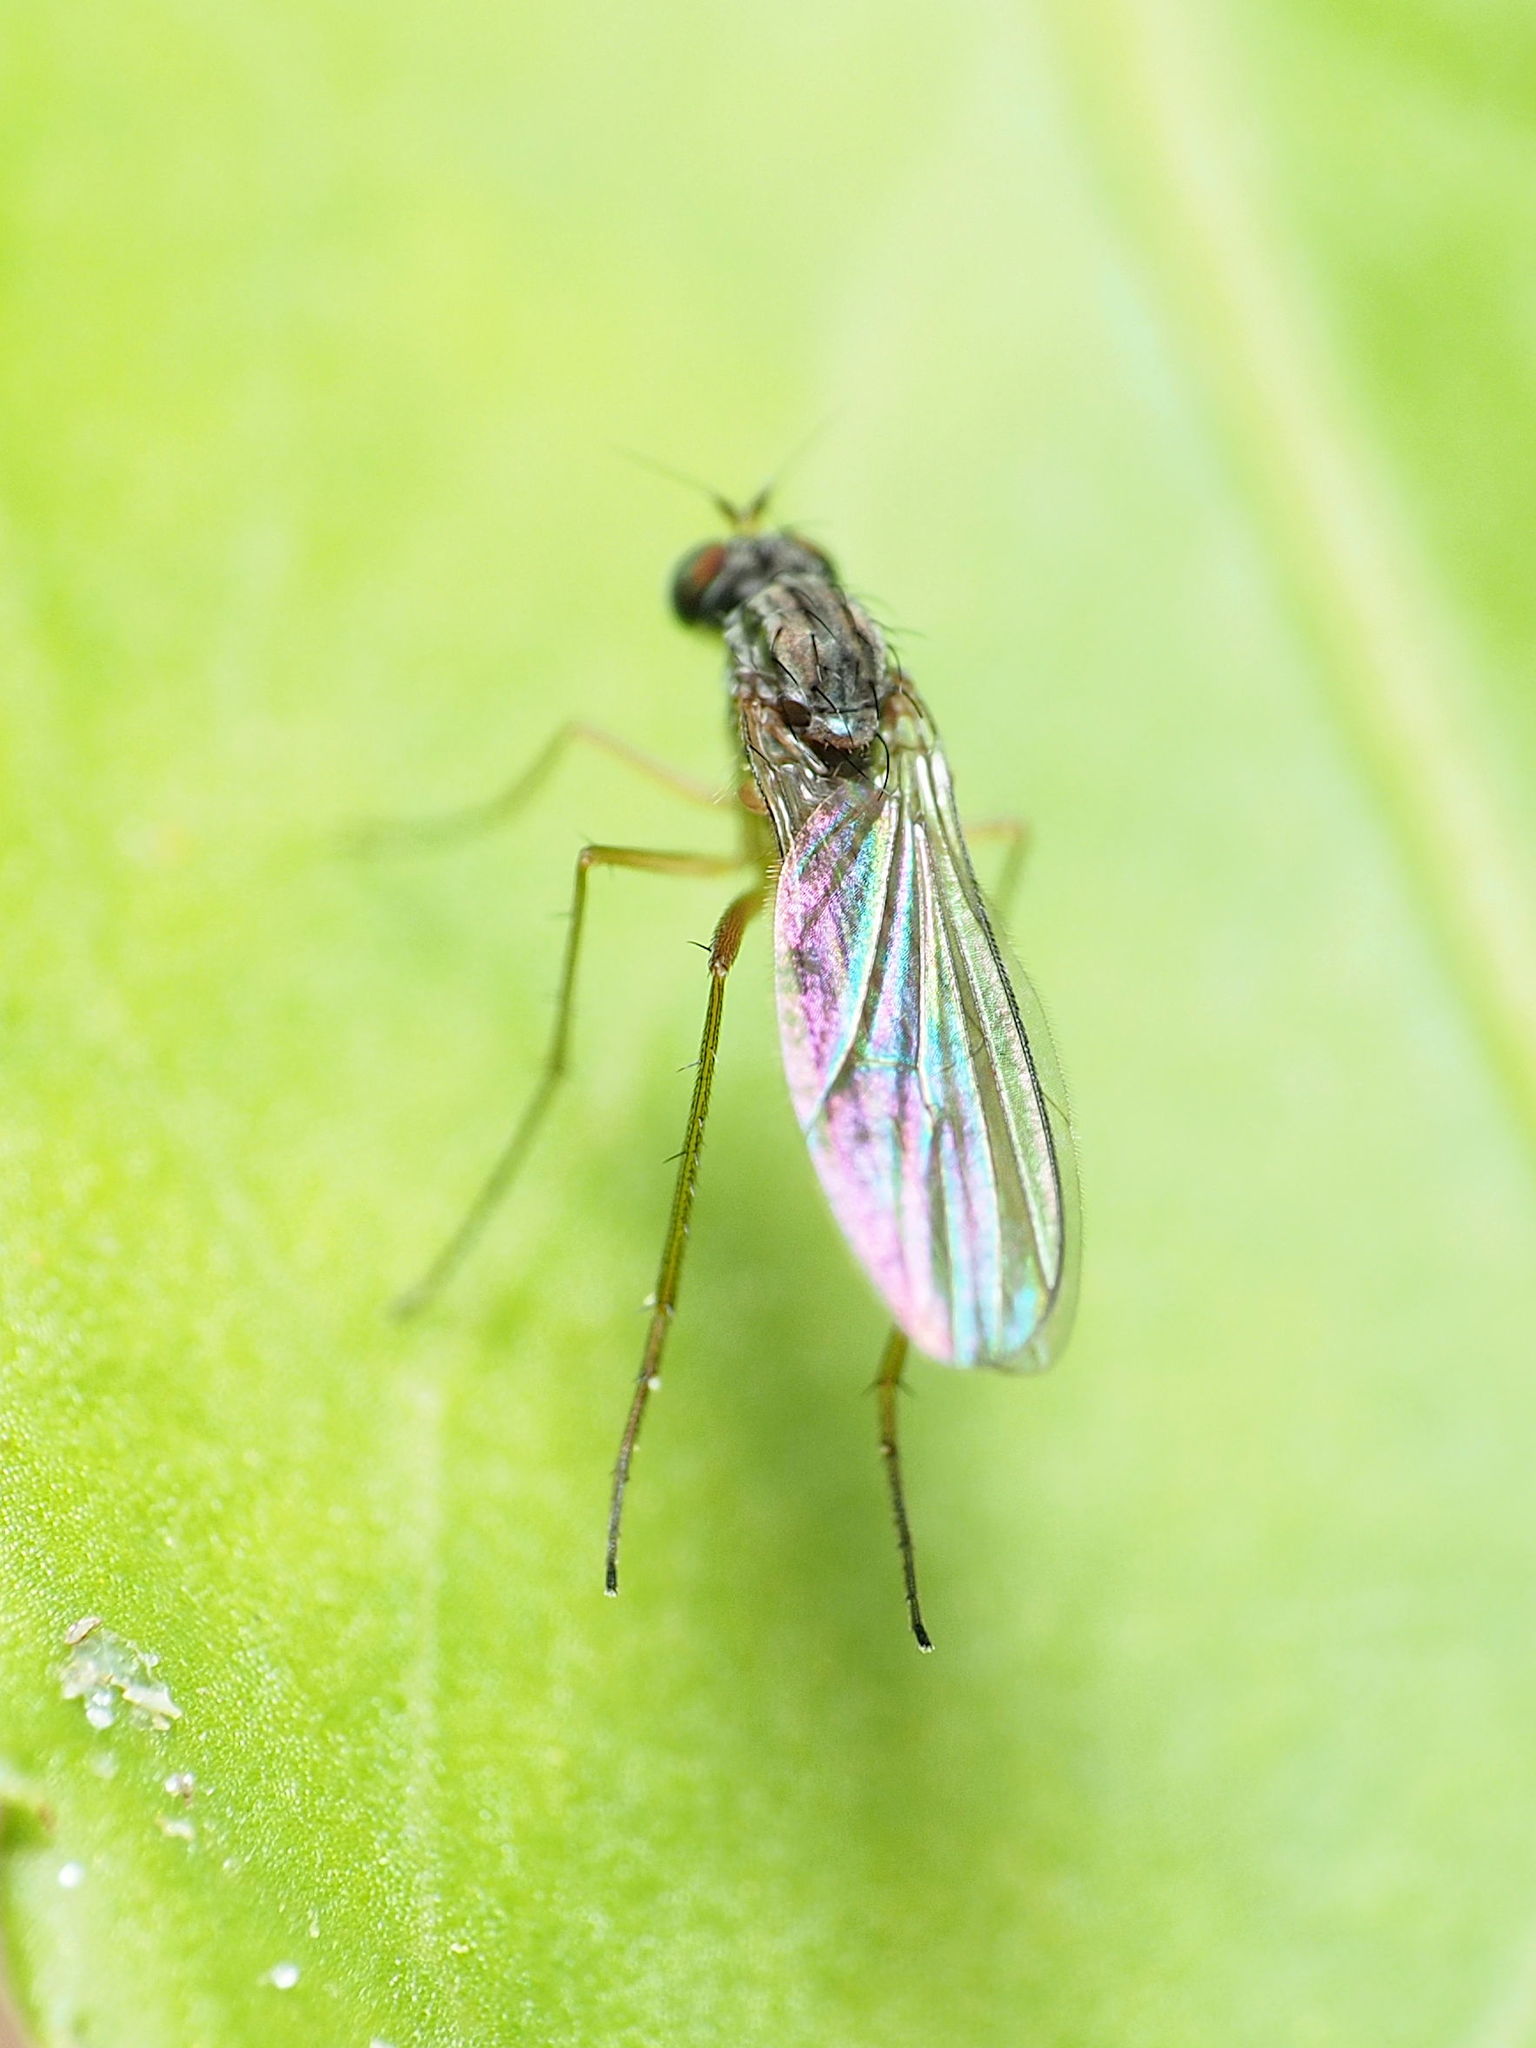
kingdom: Animalia
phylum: Arthropoda
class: Insecta
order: Diptera
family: Dolichopodidae
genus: Sympycnus
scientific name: Sympycnus lineatus
